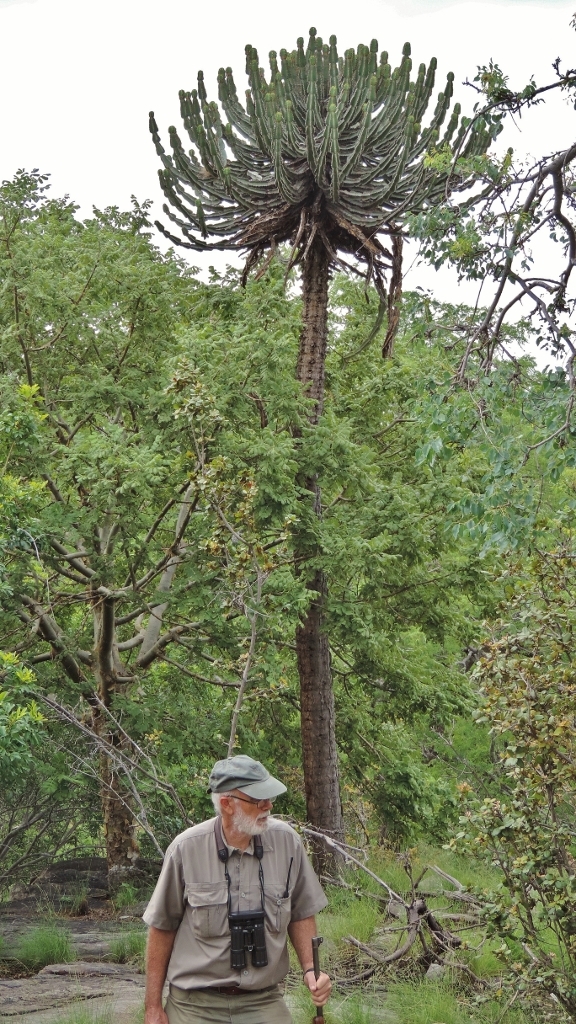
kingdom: Plantae
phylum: Tracheophyta
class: Magnoliopsida
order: Malpighiales
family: Euphorbiaceae
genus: Euphorbia
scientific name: Euphorbia cooperi
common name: Candelabra tree
